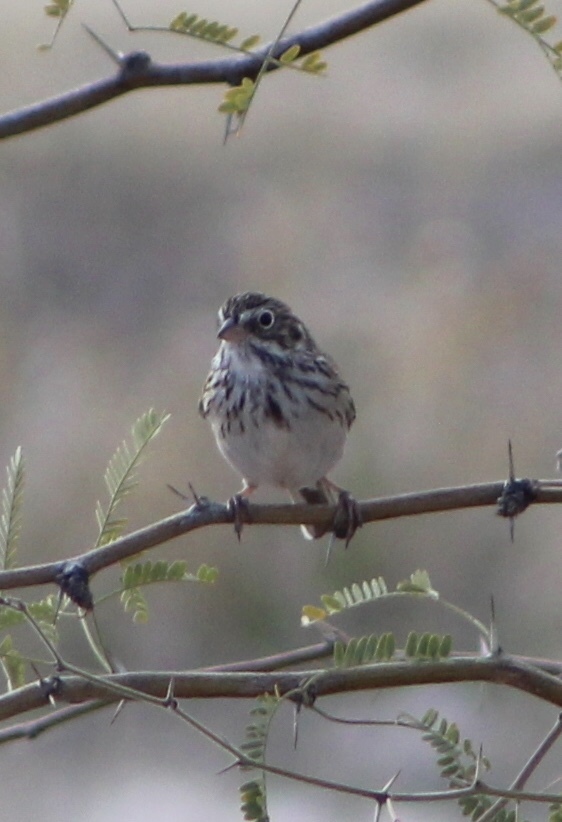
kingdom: Animalia
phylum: Chordata
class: Aves
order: Passeriformes
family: Passerellidae
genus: Pooecetes
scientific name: Pooecetes gramineus
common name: Vesper sparrow
